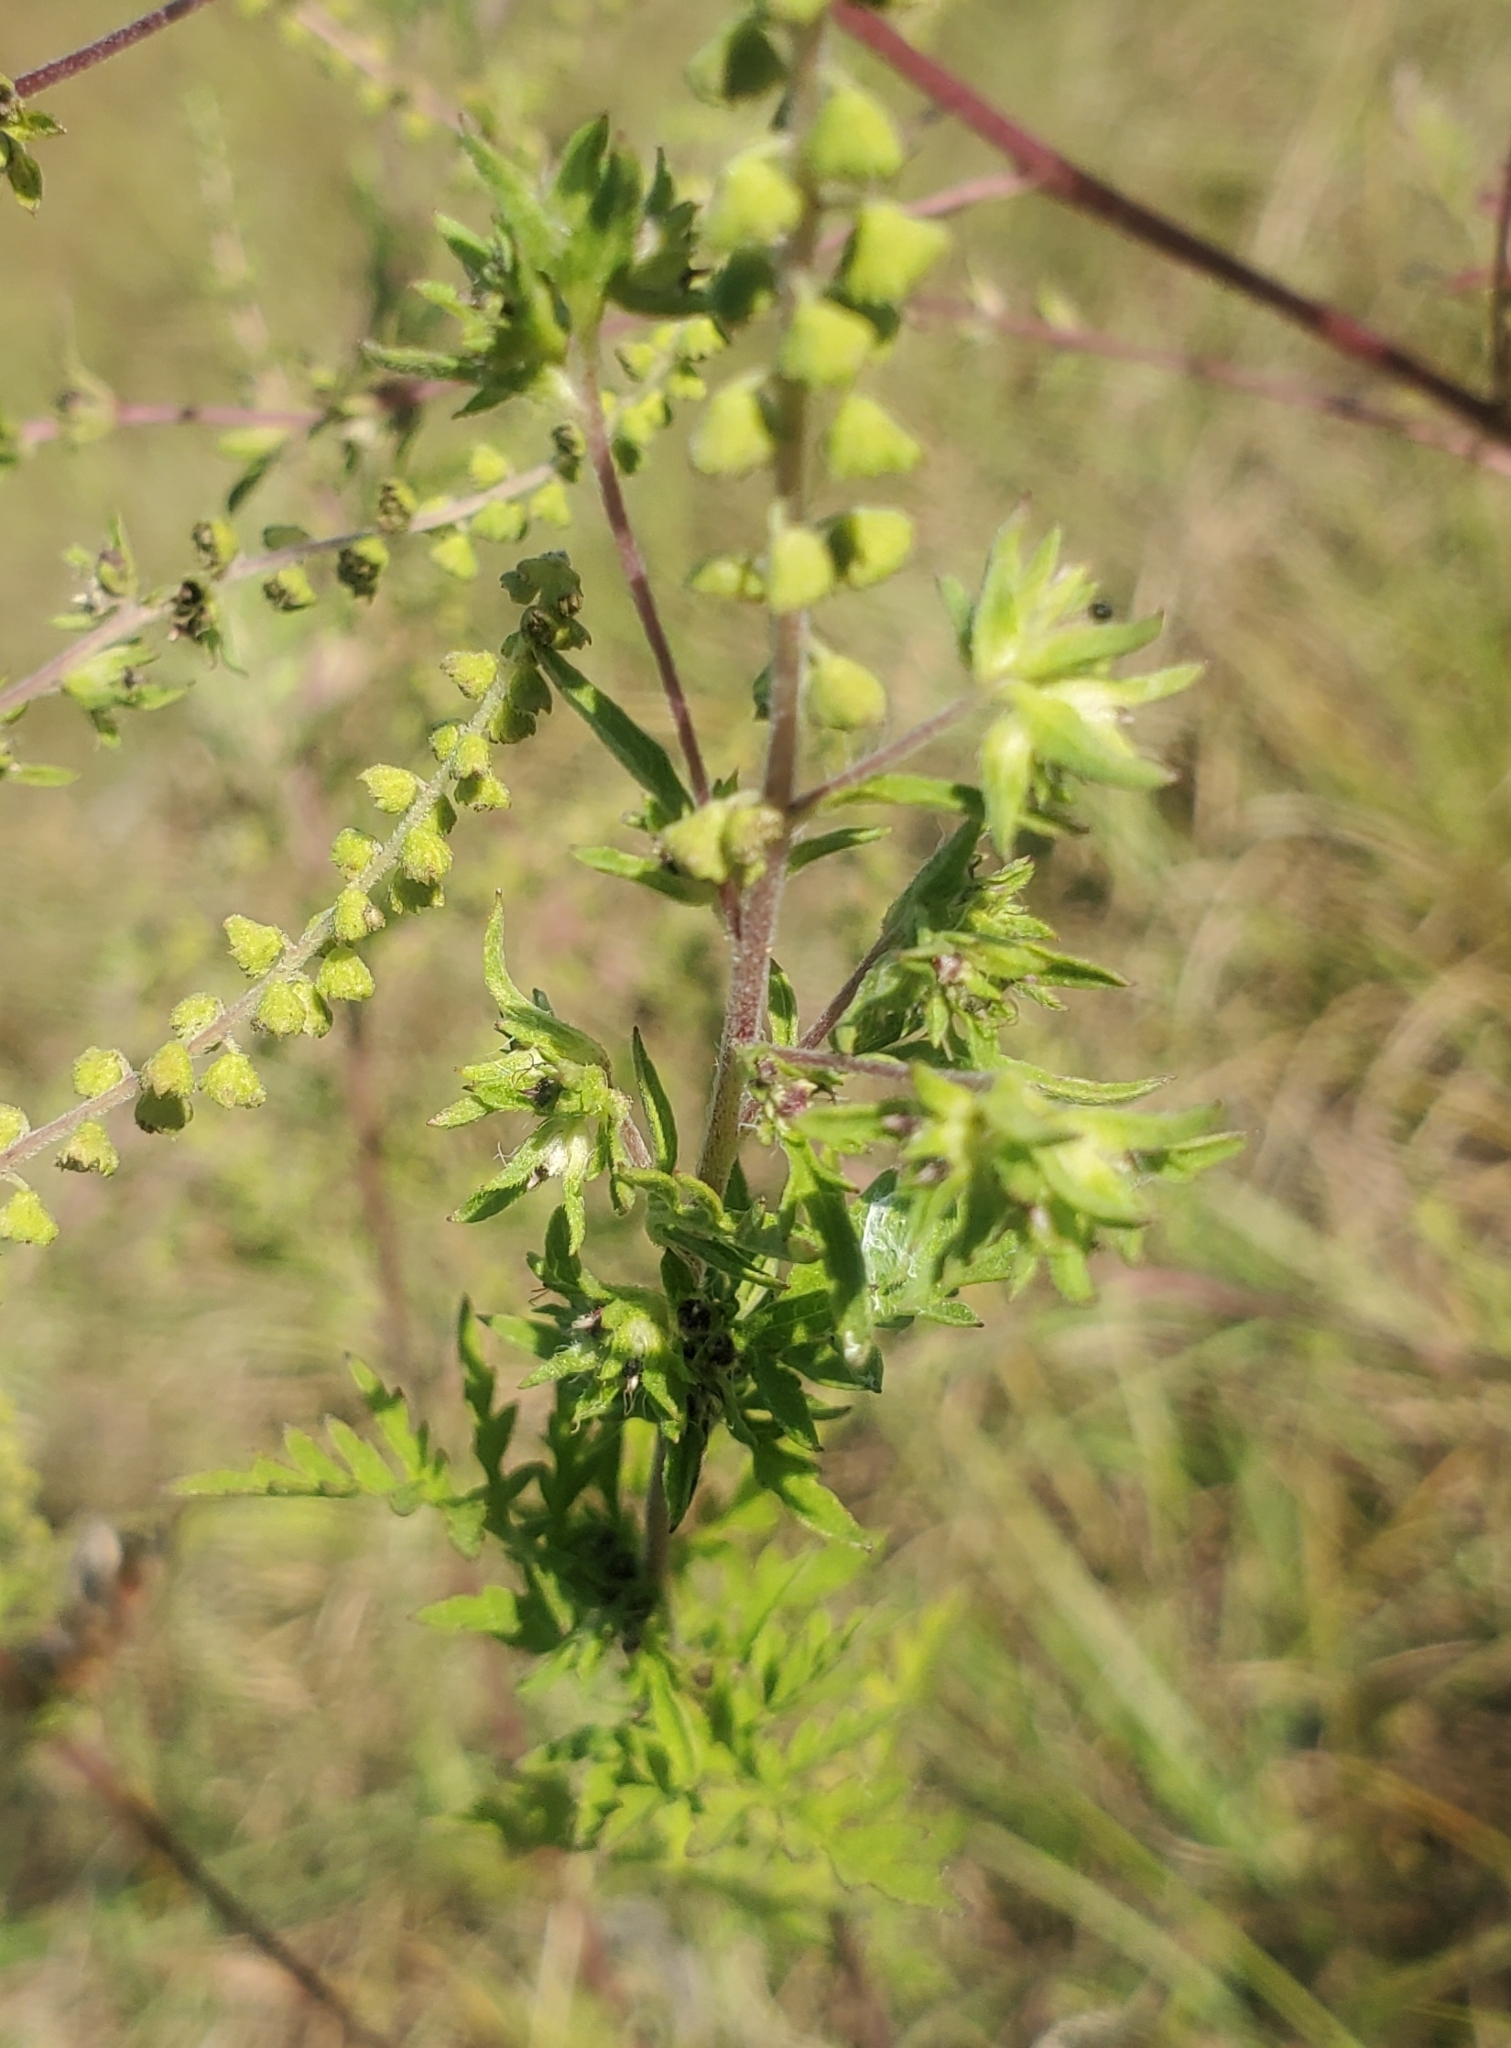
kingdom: Plantae
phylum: Tracheophyta
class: Magnoliopsida
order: Asterales
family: Asteraceae
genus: Ambrosia
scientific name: Ambrosia artemisiifolia
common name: Annual ragweed
